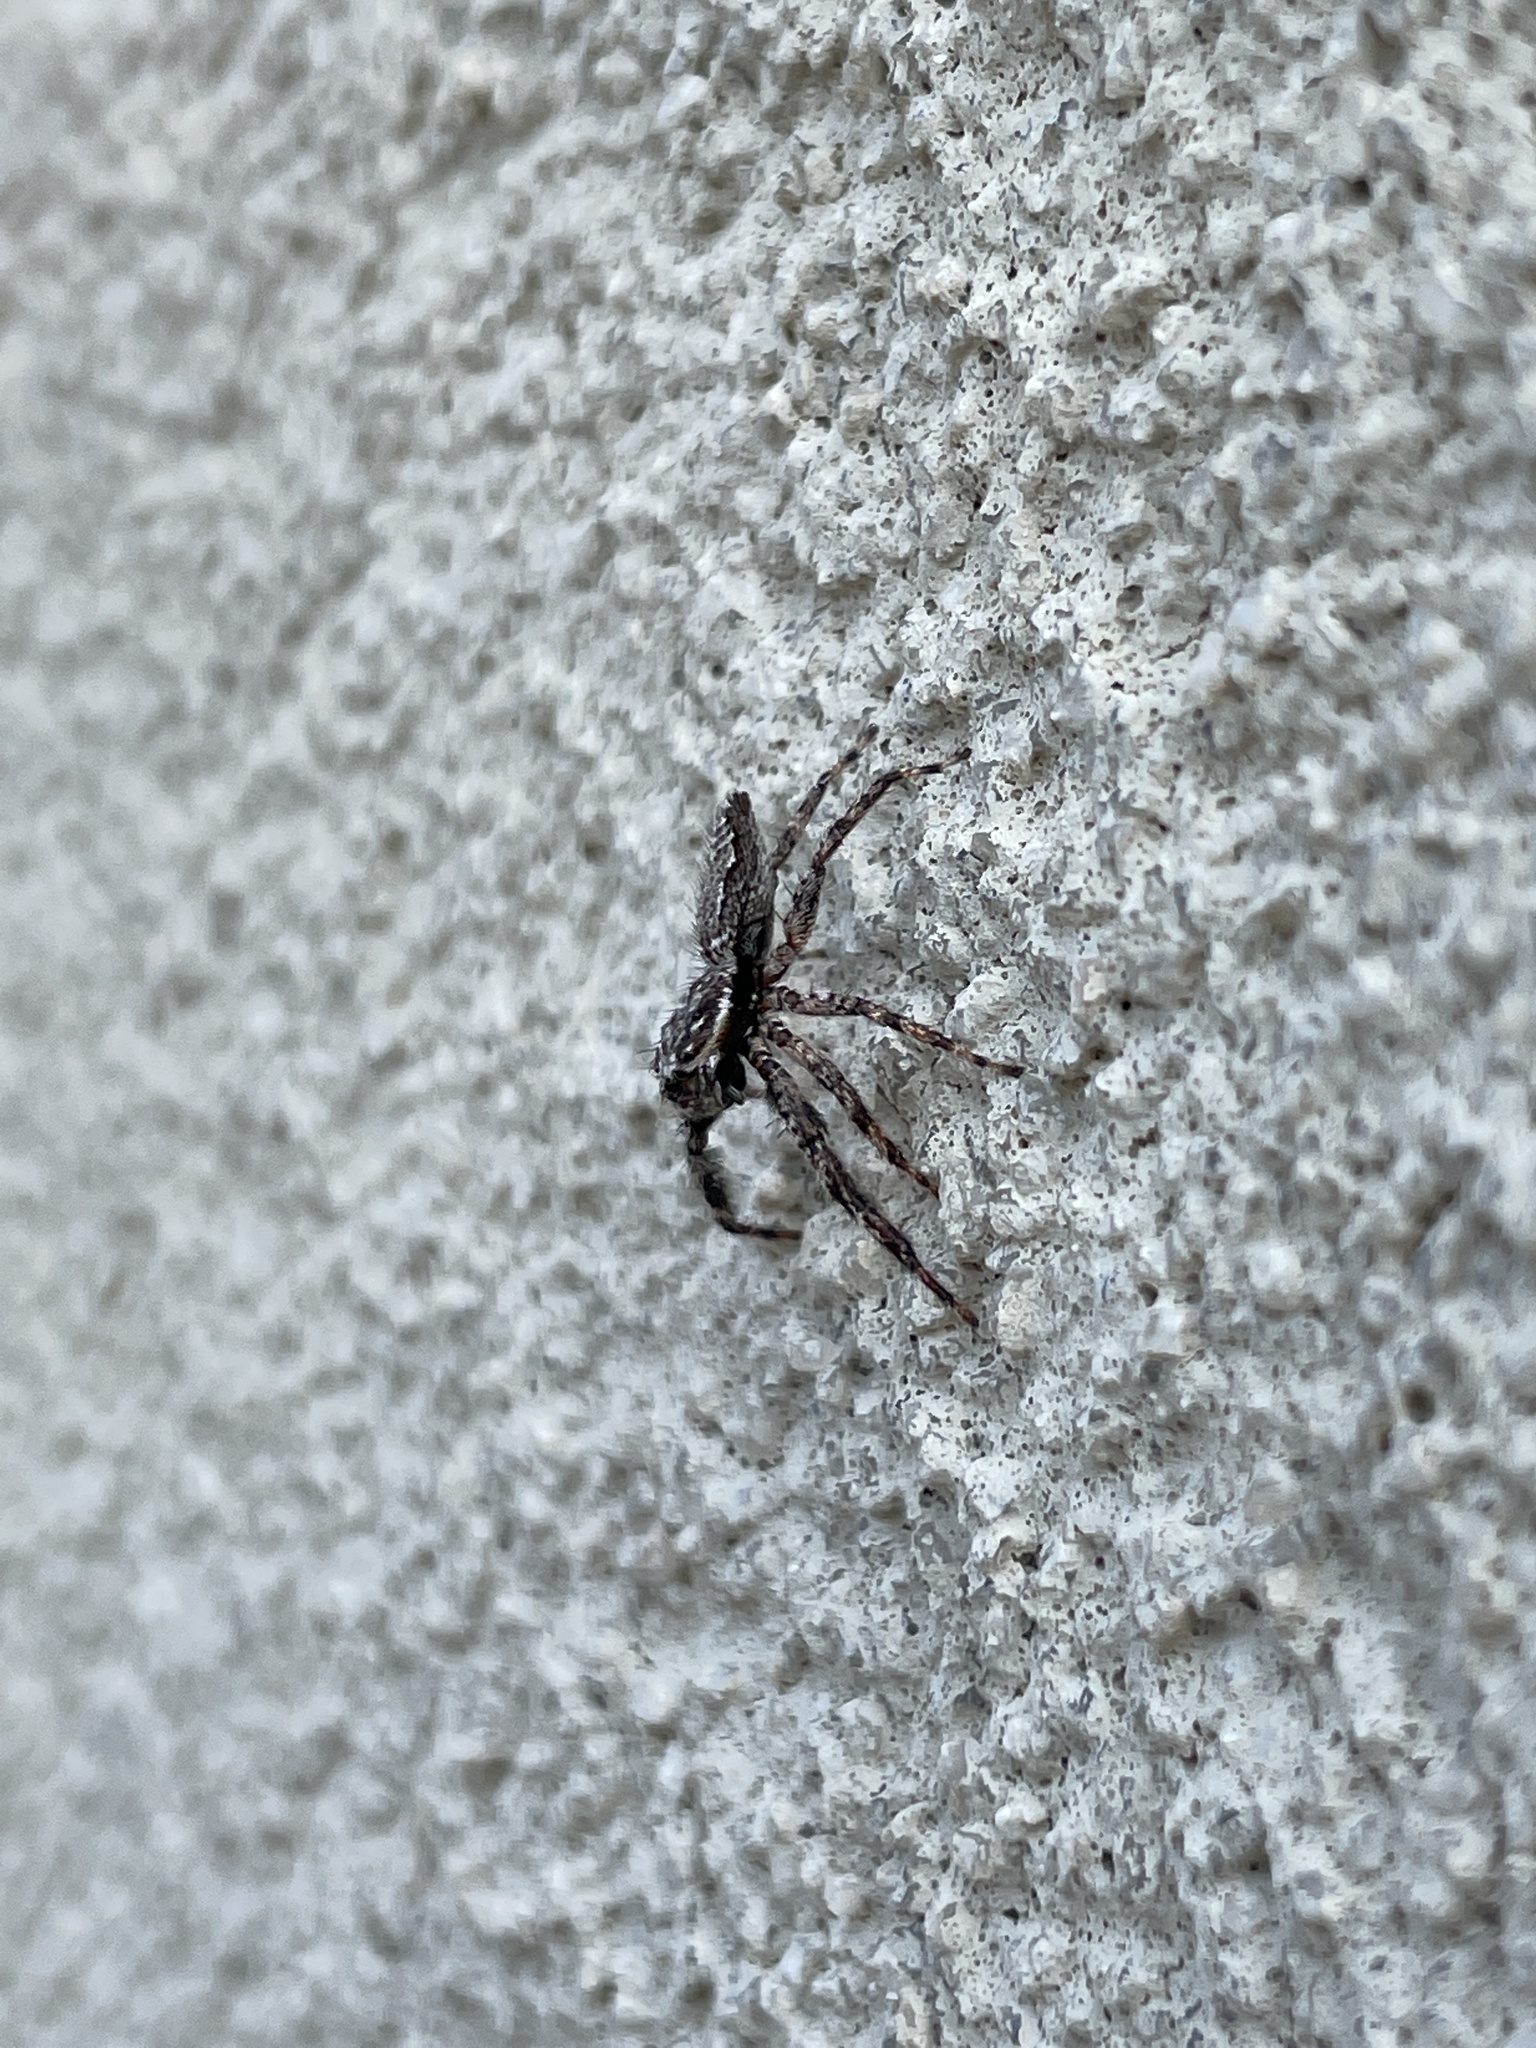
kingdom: Animalia
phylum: Arthropoda
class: Arachnida
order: Araneae
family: Salticidae
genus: Platycryptus
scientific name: Platycryptus undatus
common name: Tan jumping spider
